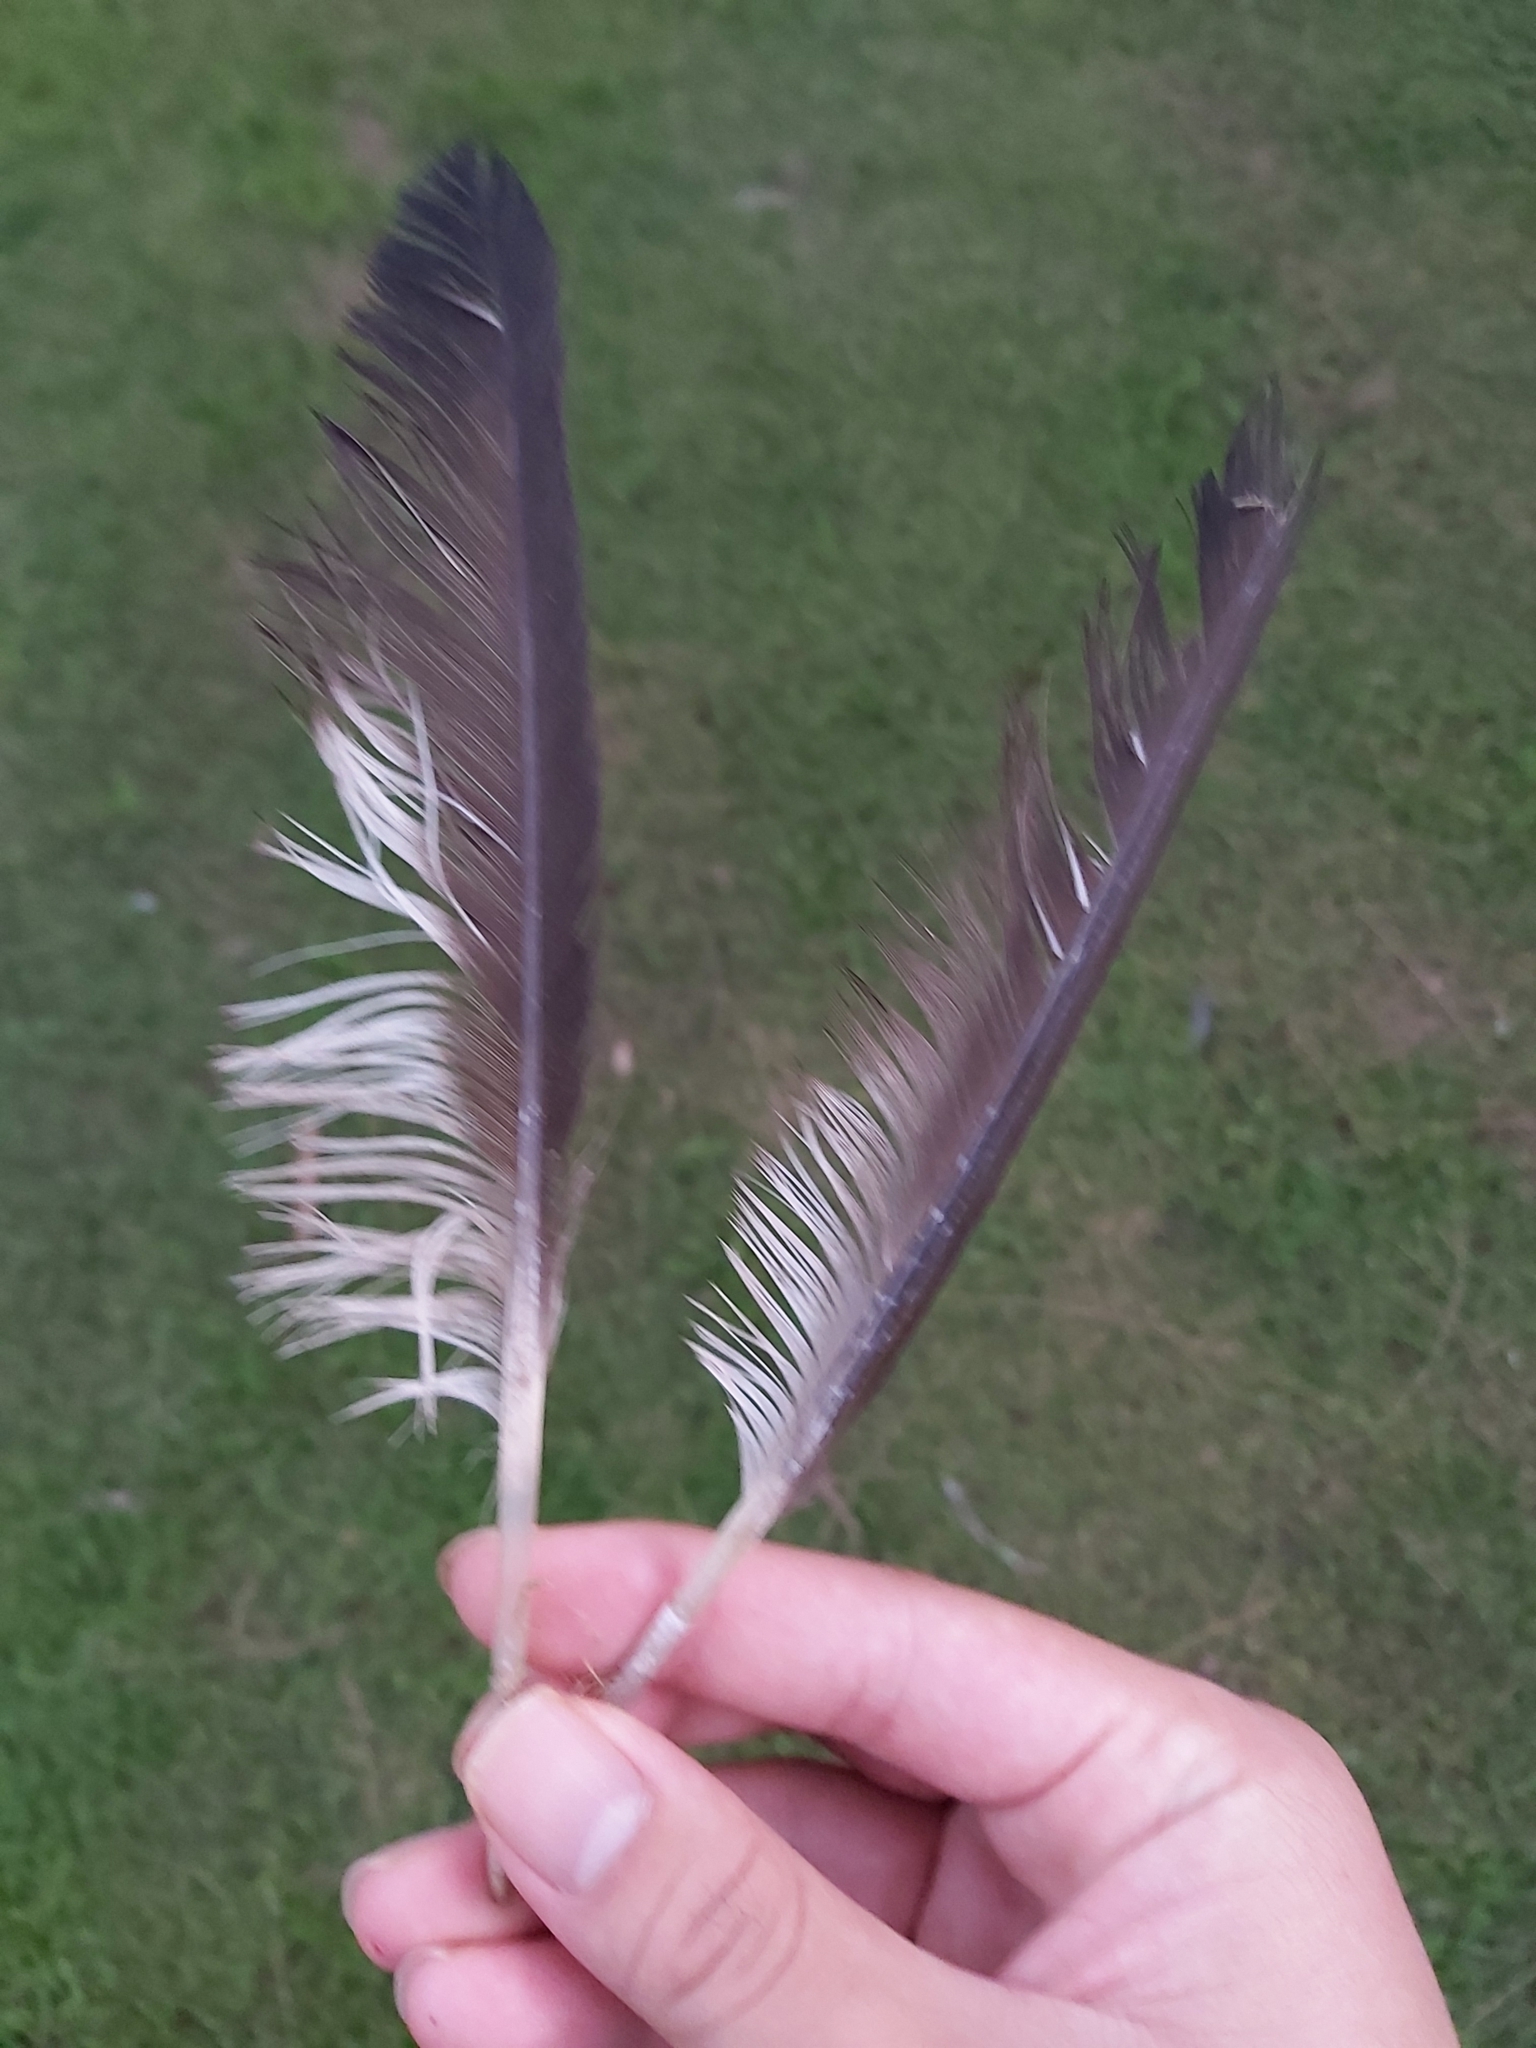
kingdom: Animalia
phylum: Chordata
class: Aves
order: Anseriformes
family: Anatidae
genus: Chenonetta
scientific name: Chenonetta jubata
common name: Maned duck
